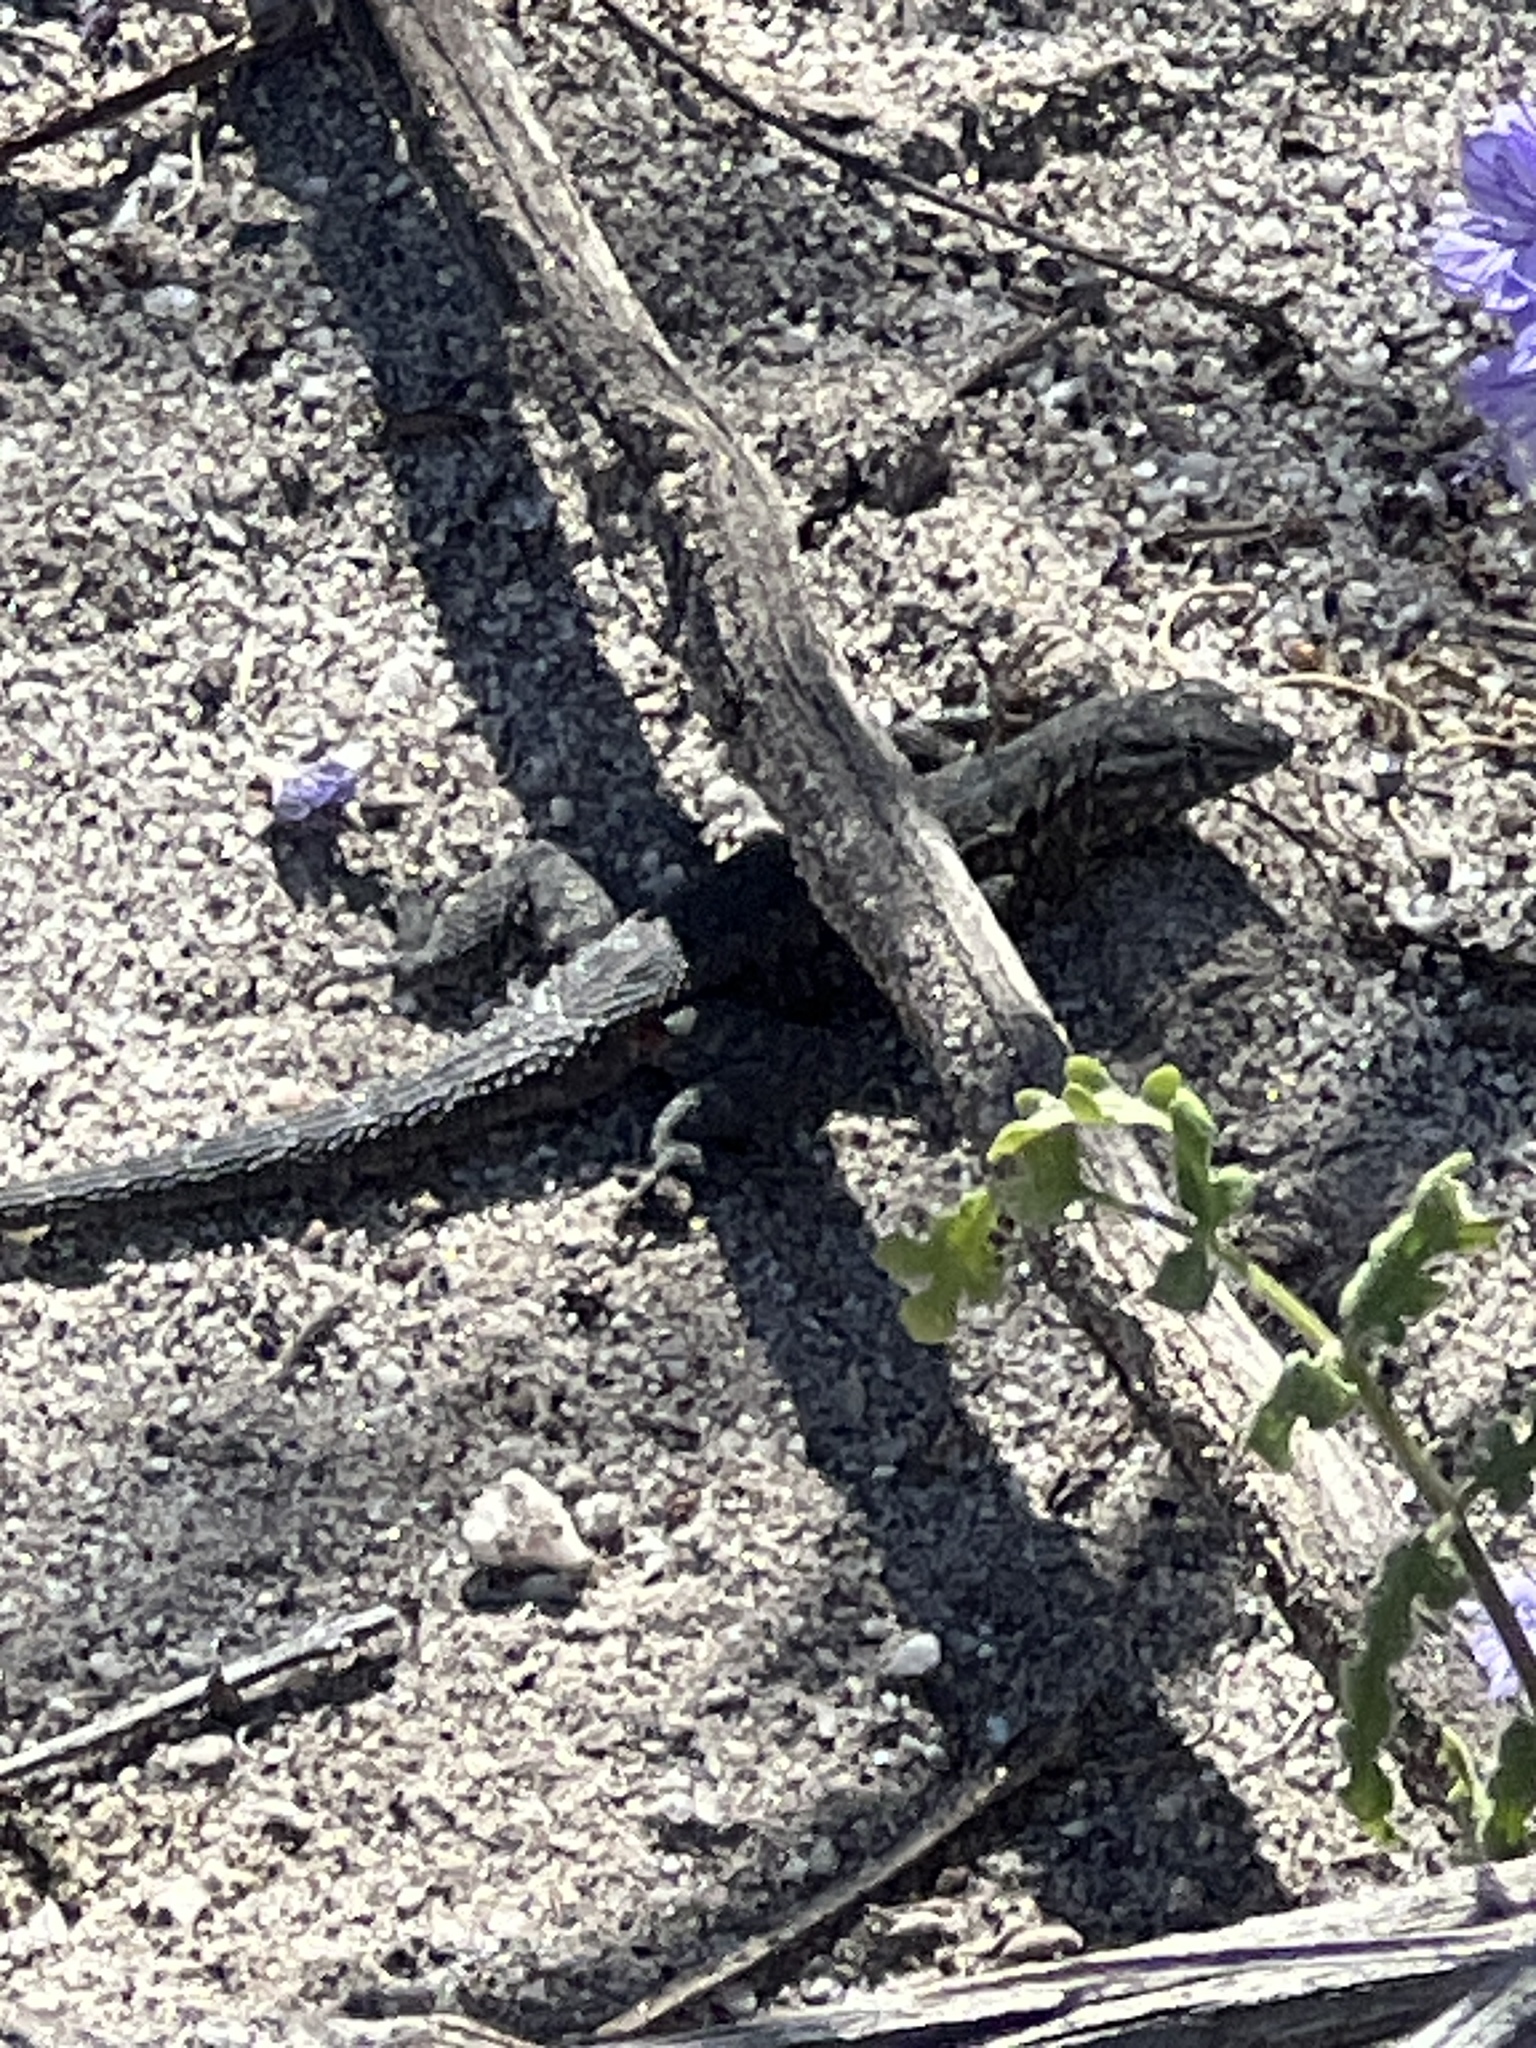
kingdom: Animalia
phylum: Chordata
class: Squamata
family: Phrynosomatidae
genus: Uta
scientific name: Uta stansburiana
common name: Side-blotched lizard
